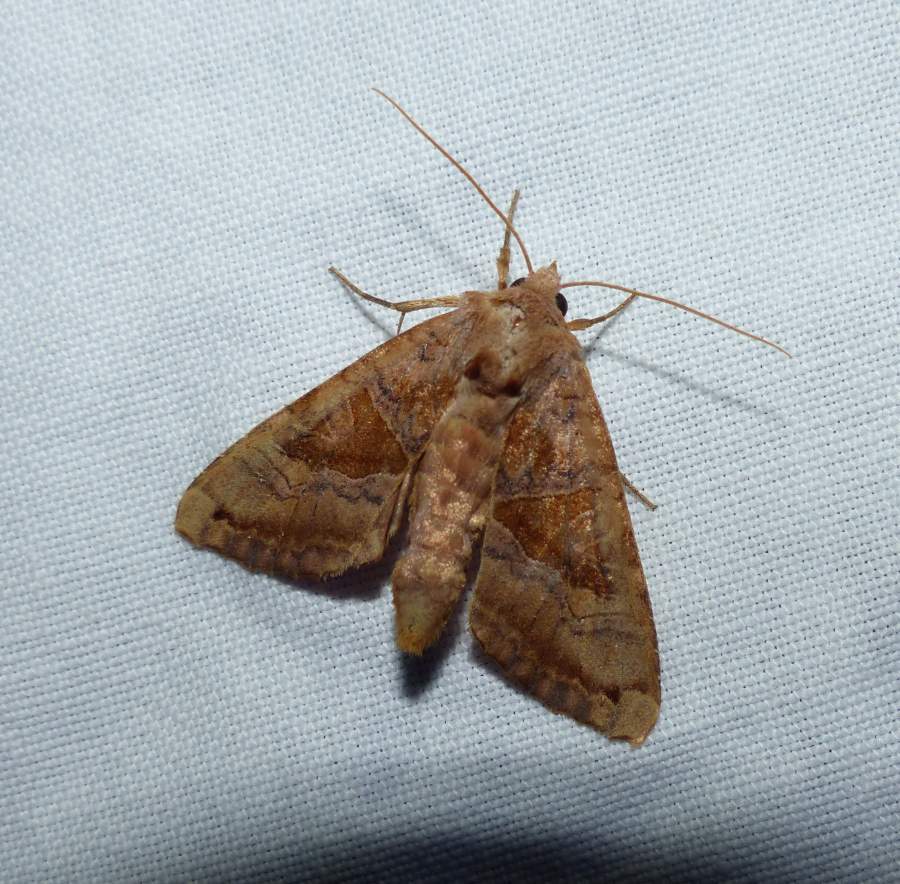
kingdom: Animalia
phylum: Arthropoda
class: Insecta
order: Lepidoptera
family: Noctuidae
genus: Phlogophora
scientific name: Phlogophora periculosa
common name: Brown angle shades
